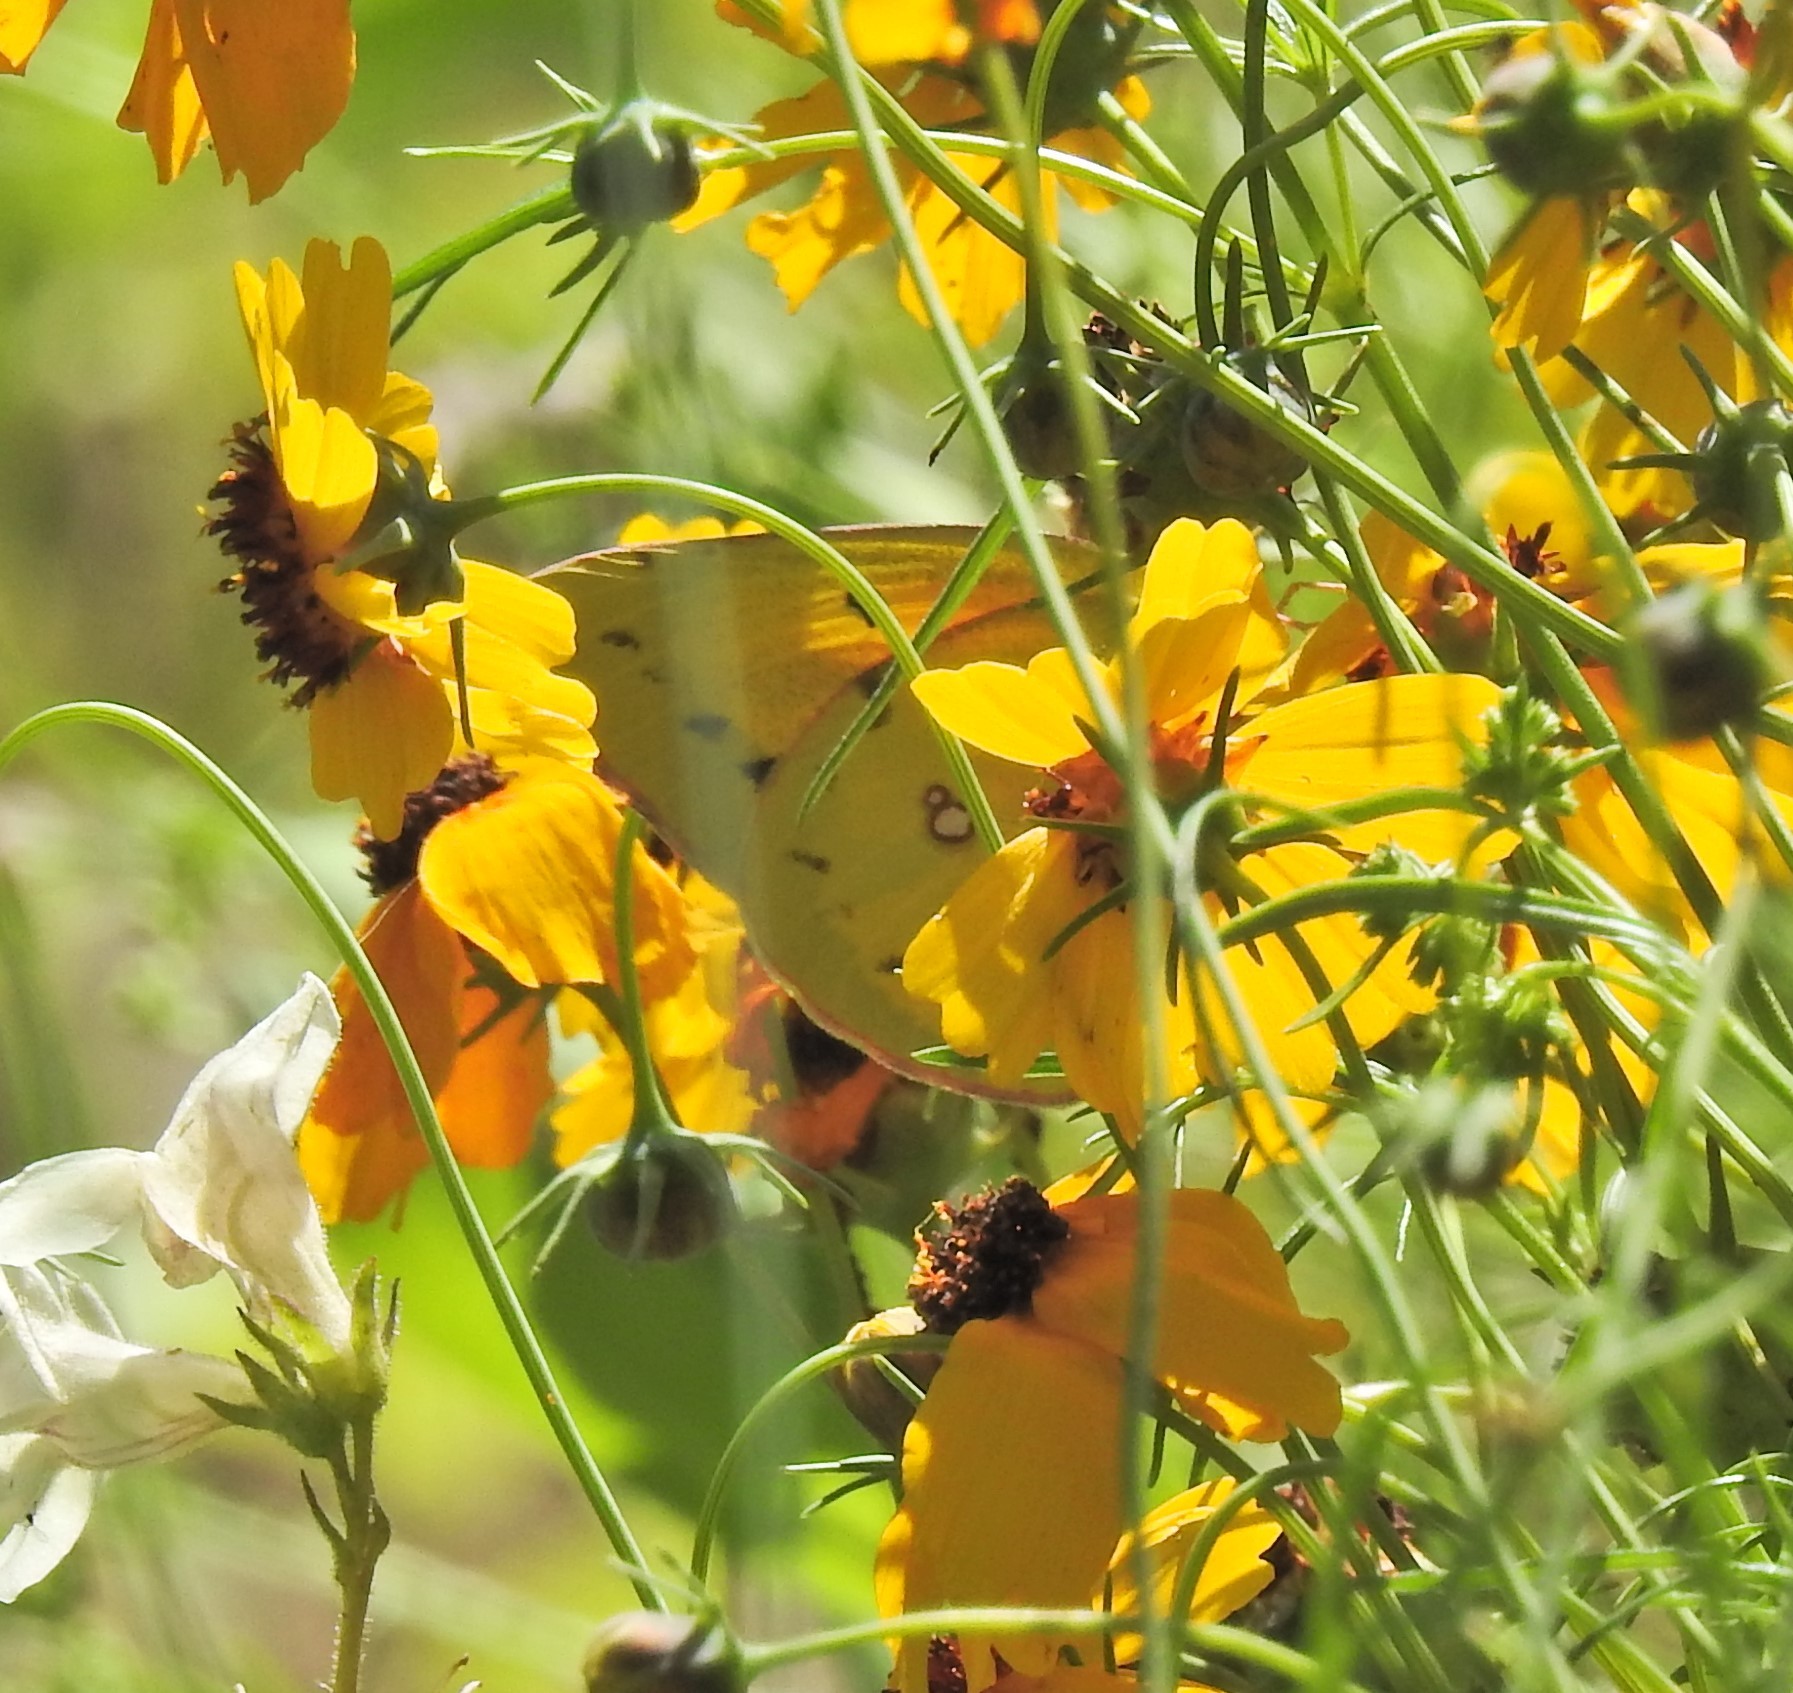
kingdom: Animalia
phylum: Arthropoda
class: Insecta
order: Lepidoptera
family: Pieridae
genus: Colias
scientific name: Colias eurytheme
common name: Alfalfa butterfly
